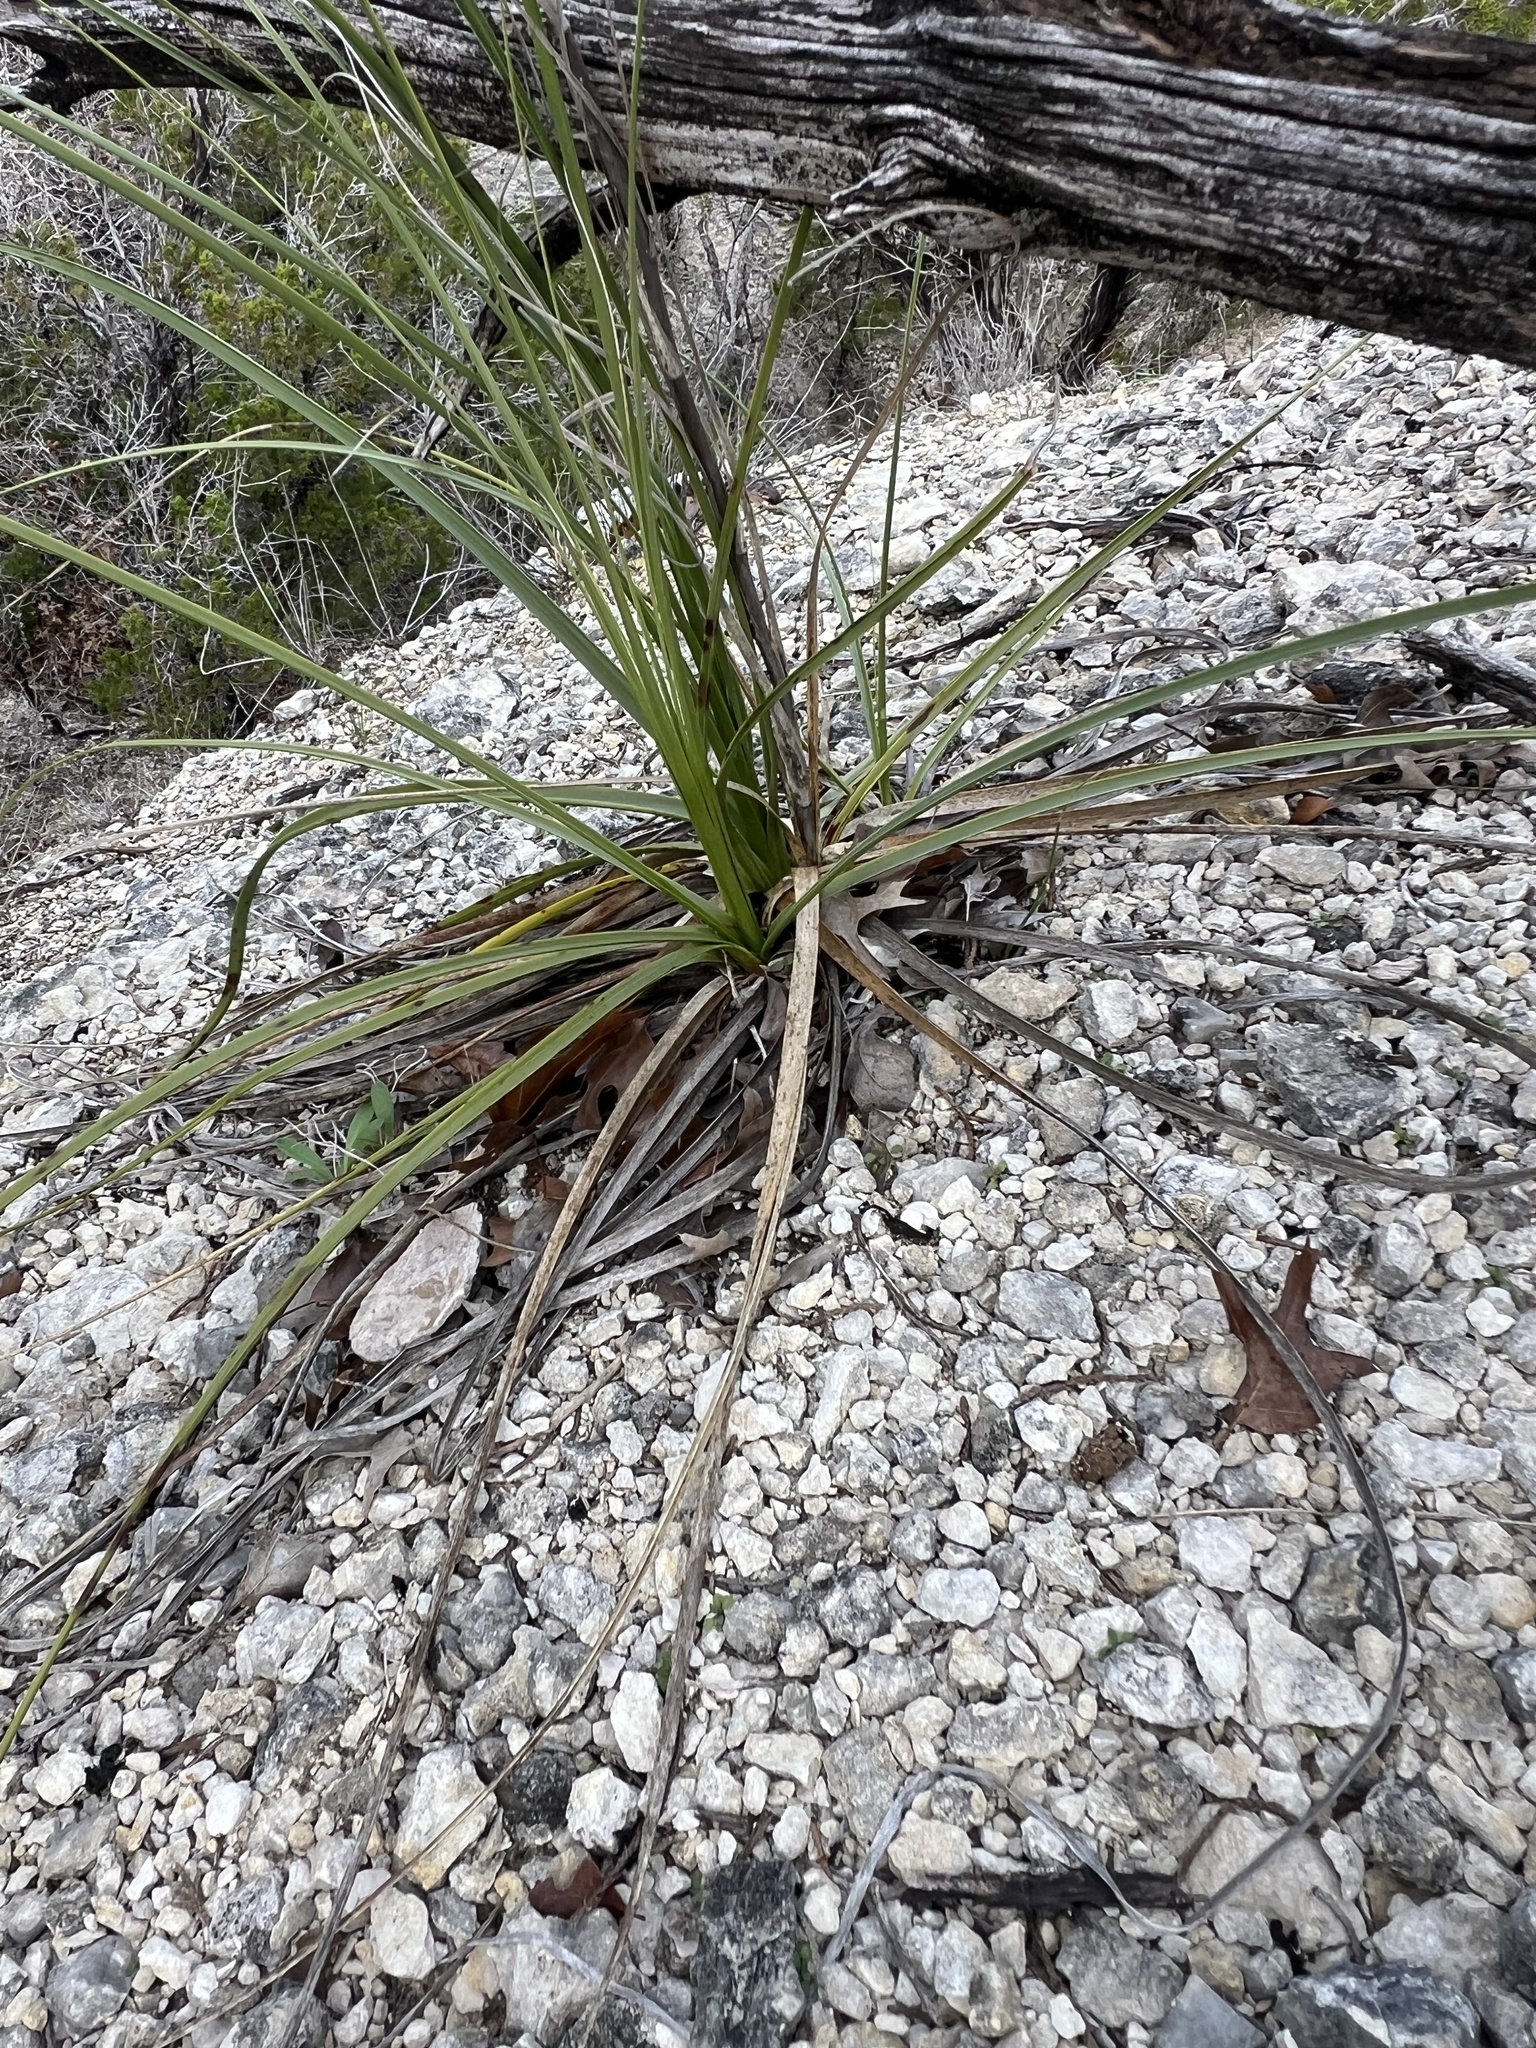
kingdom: Plantae
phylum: Tracheophyta
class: Liliopsida
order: Asparagales
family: Asparagaceae
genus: Nolina
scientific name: Nolina lindheimeriana
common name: Lindheimer's bear-grass
